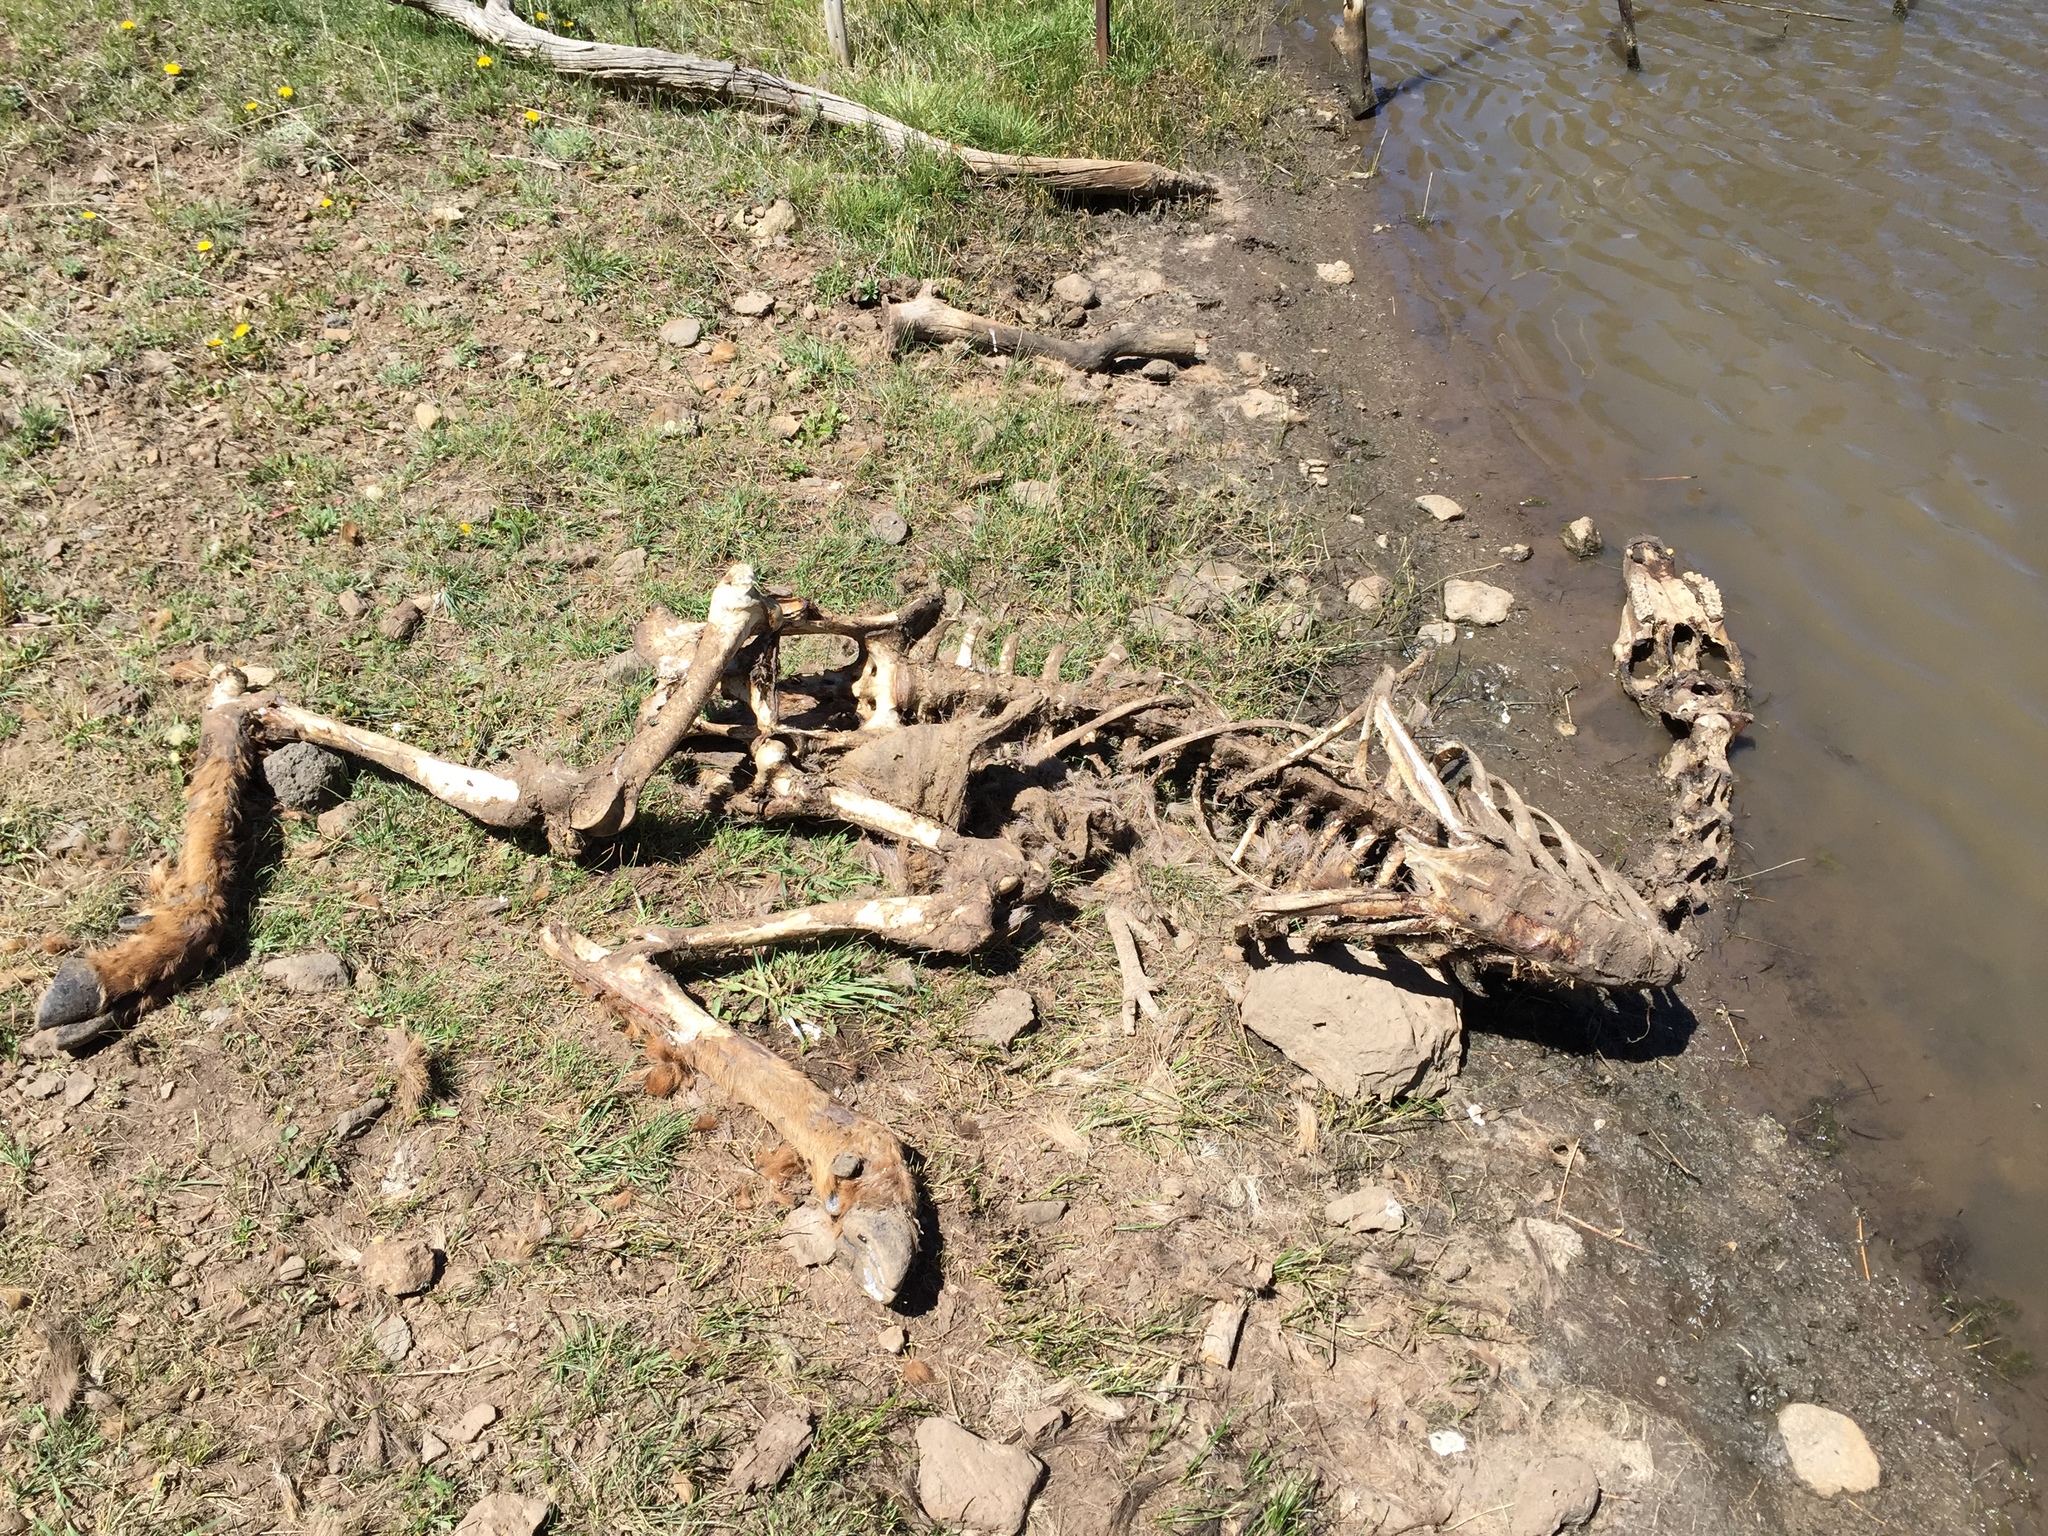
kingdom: Animalia
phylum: Chordata
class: Mammalia
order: Artiodactyla
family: Cervidae
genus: Cervus
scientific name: Cervus elaphus
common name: Red deer
